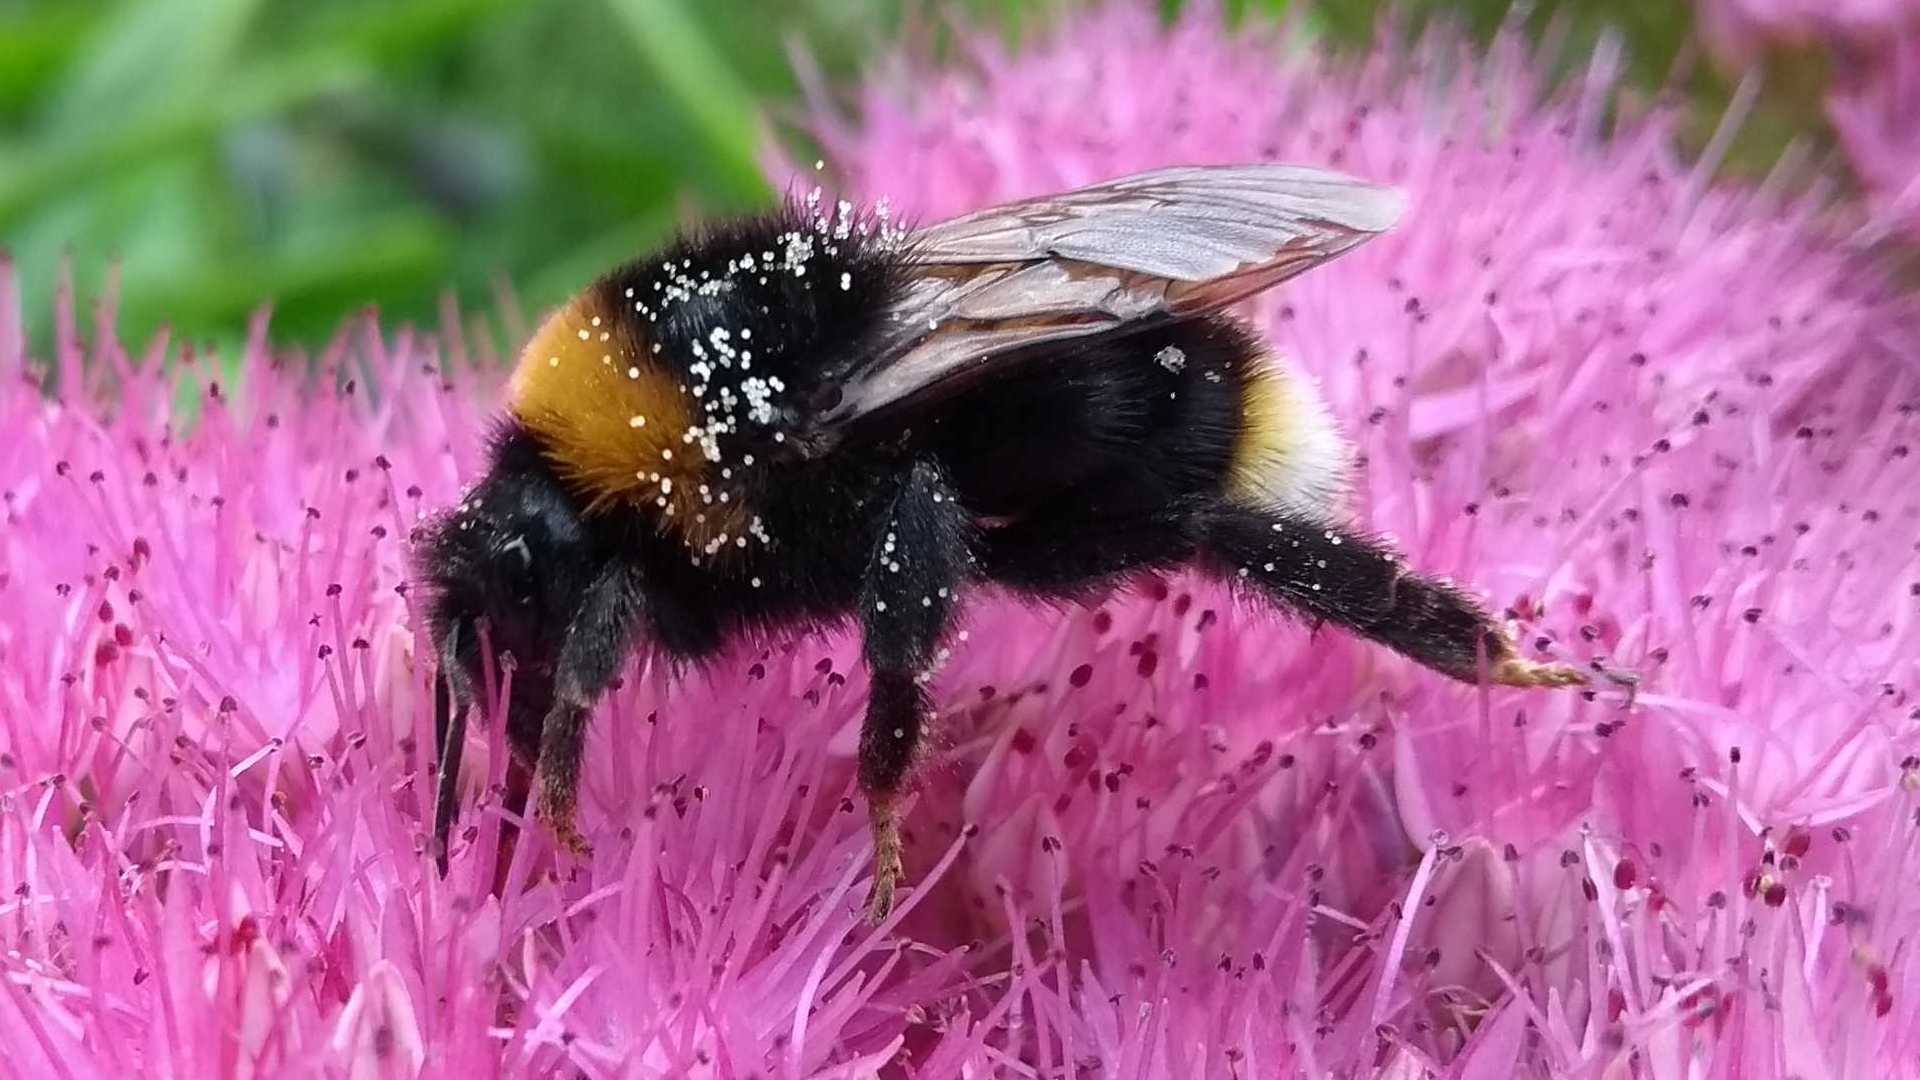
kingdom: Animalia
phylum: Arthropoda
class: Insecta
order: Hymenoptera
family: Apidae
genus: Bombus
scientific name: Bombus vestalis
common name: Vestal cuckoo bee
